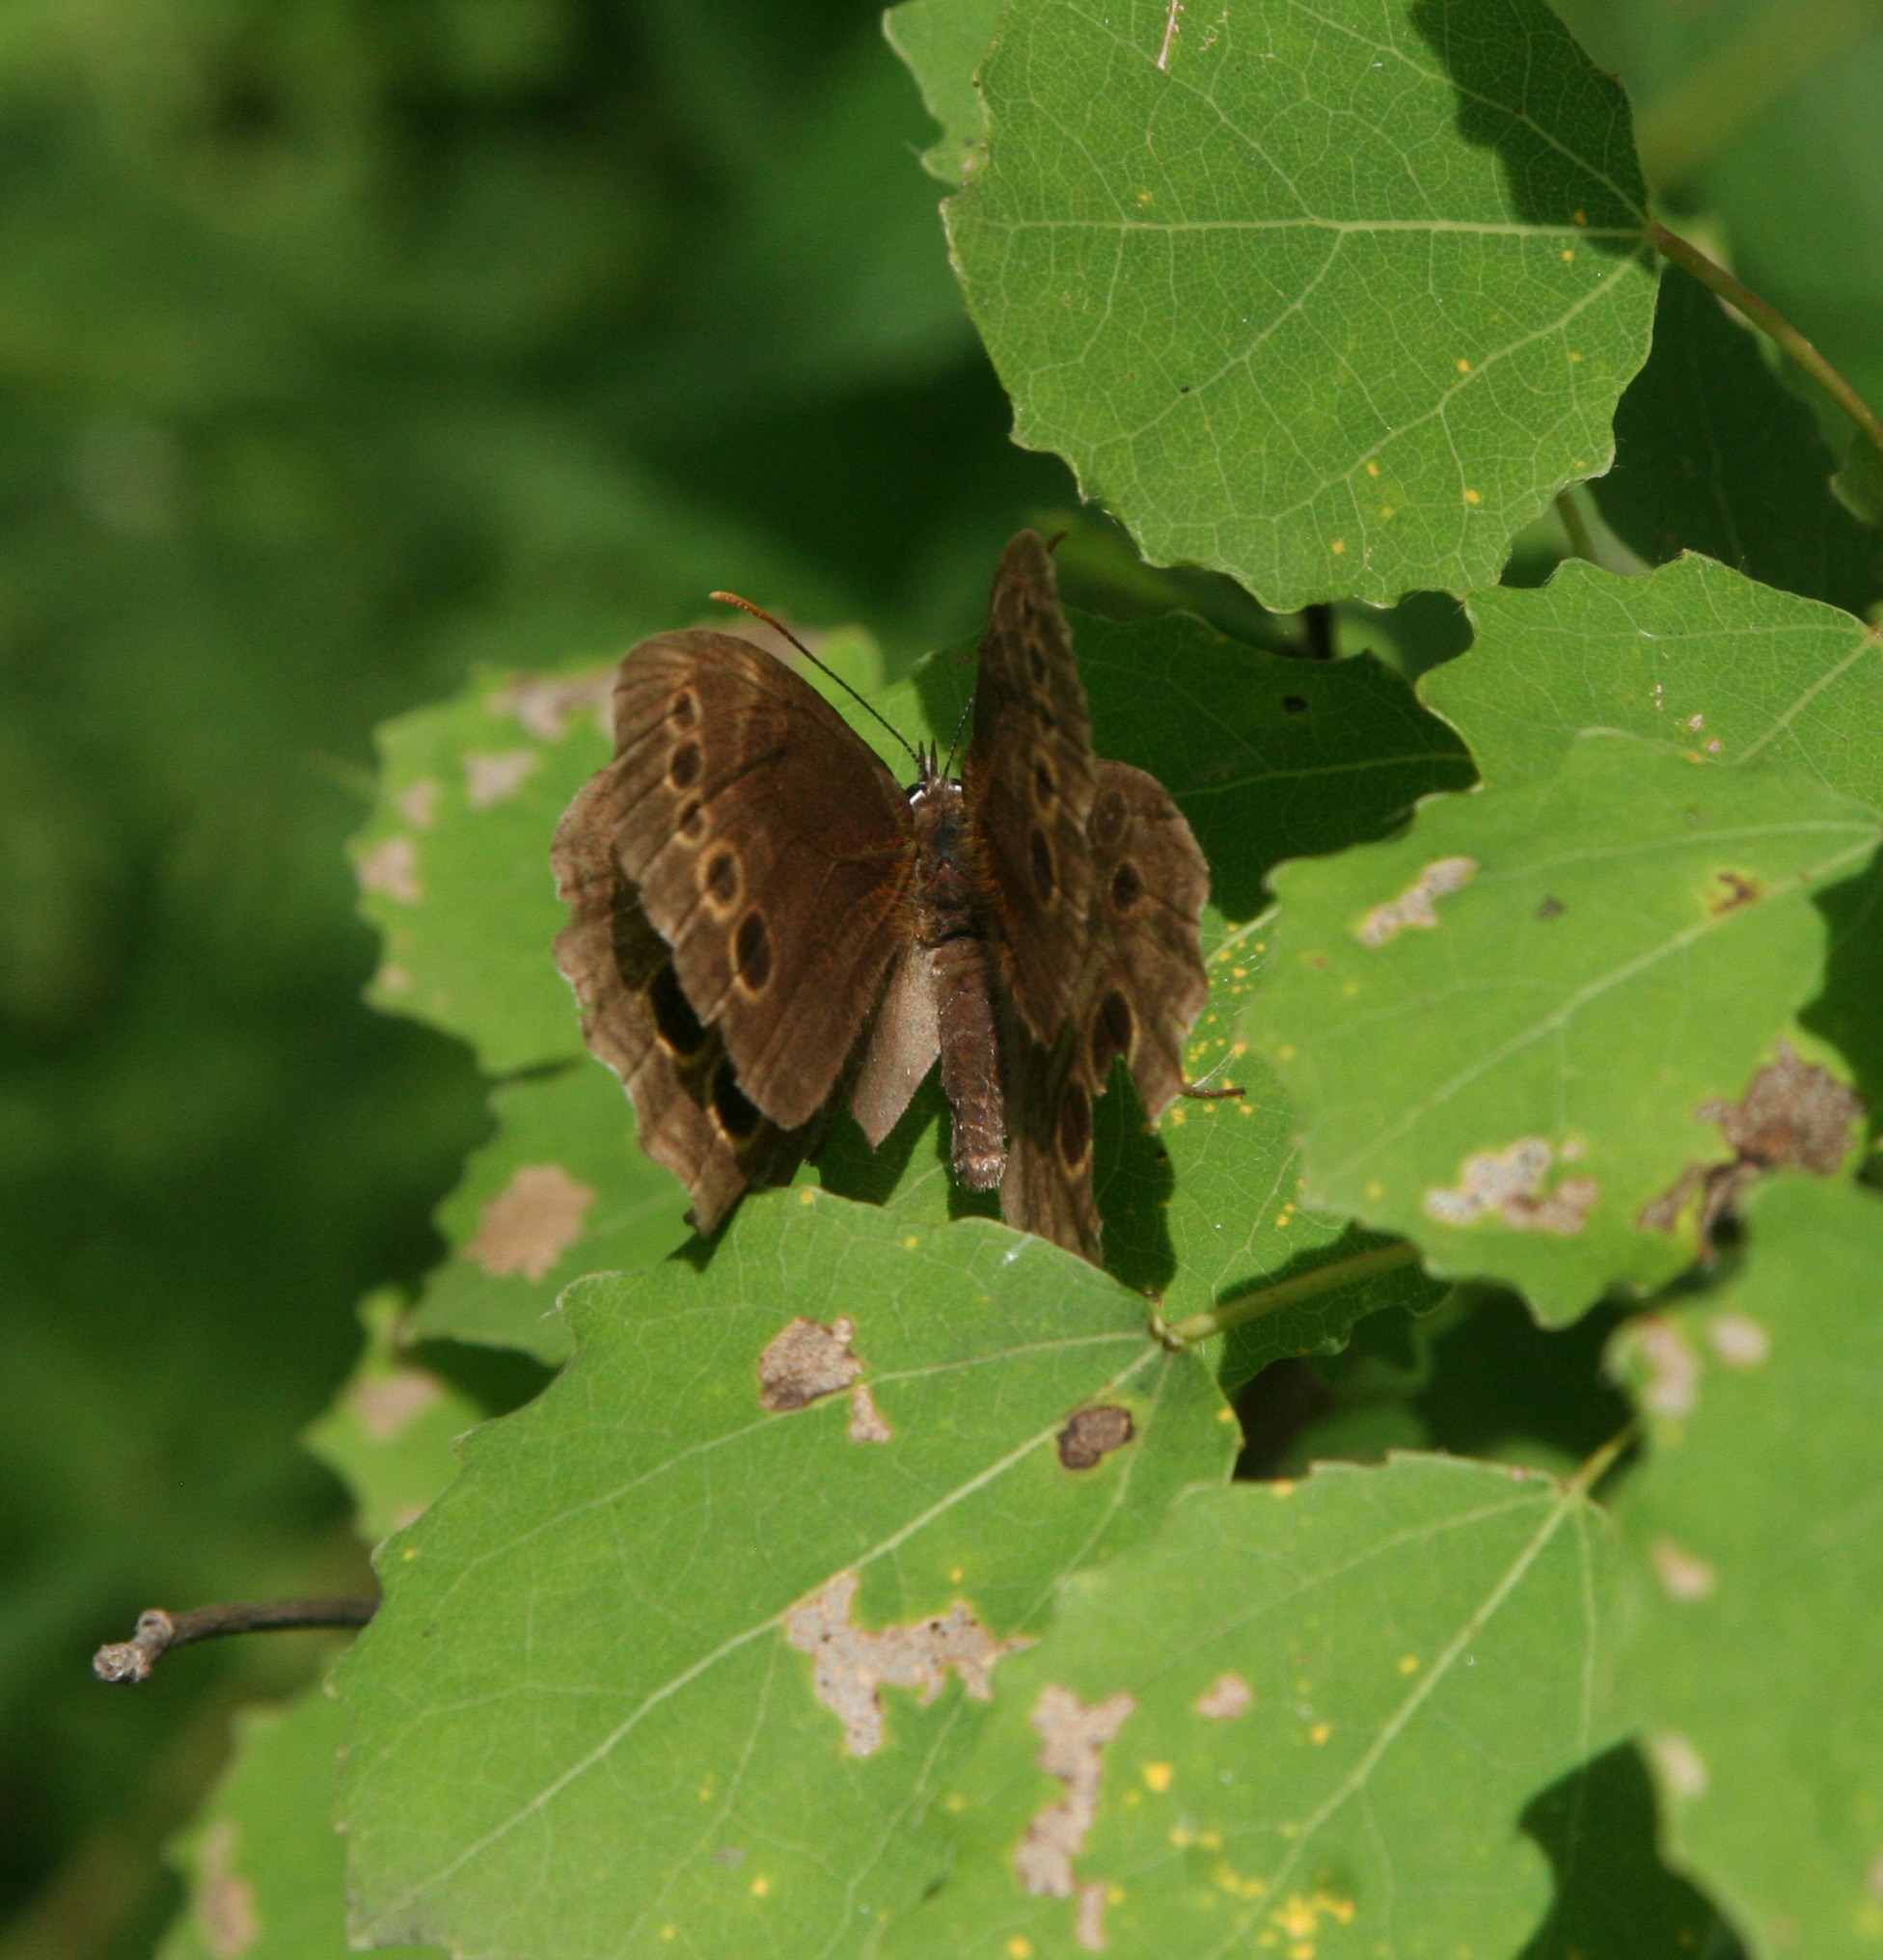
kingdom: Animalia
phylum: Arthropoda
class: Insecta
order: Lepidoptera
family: Nymphalidae
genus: Pararge
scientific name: Pararge Lopinga achine
